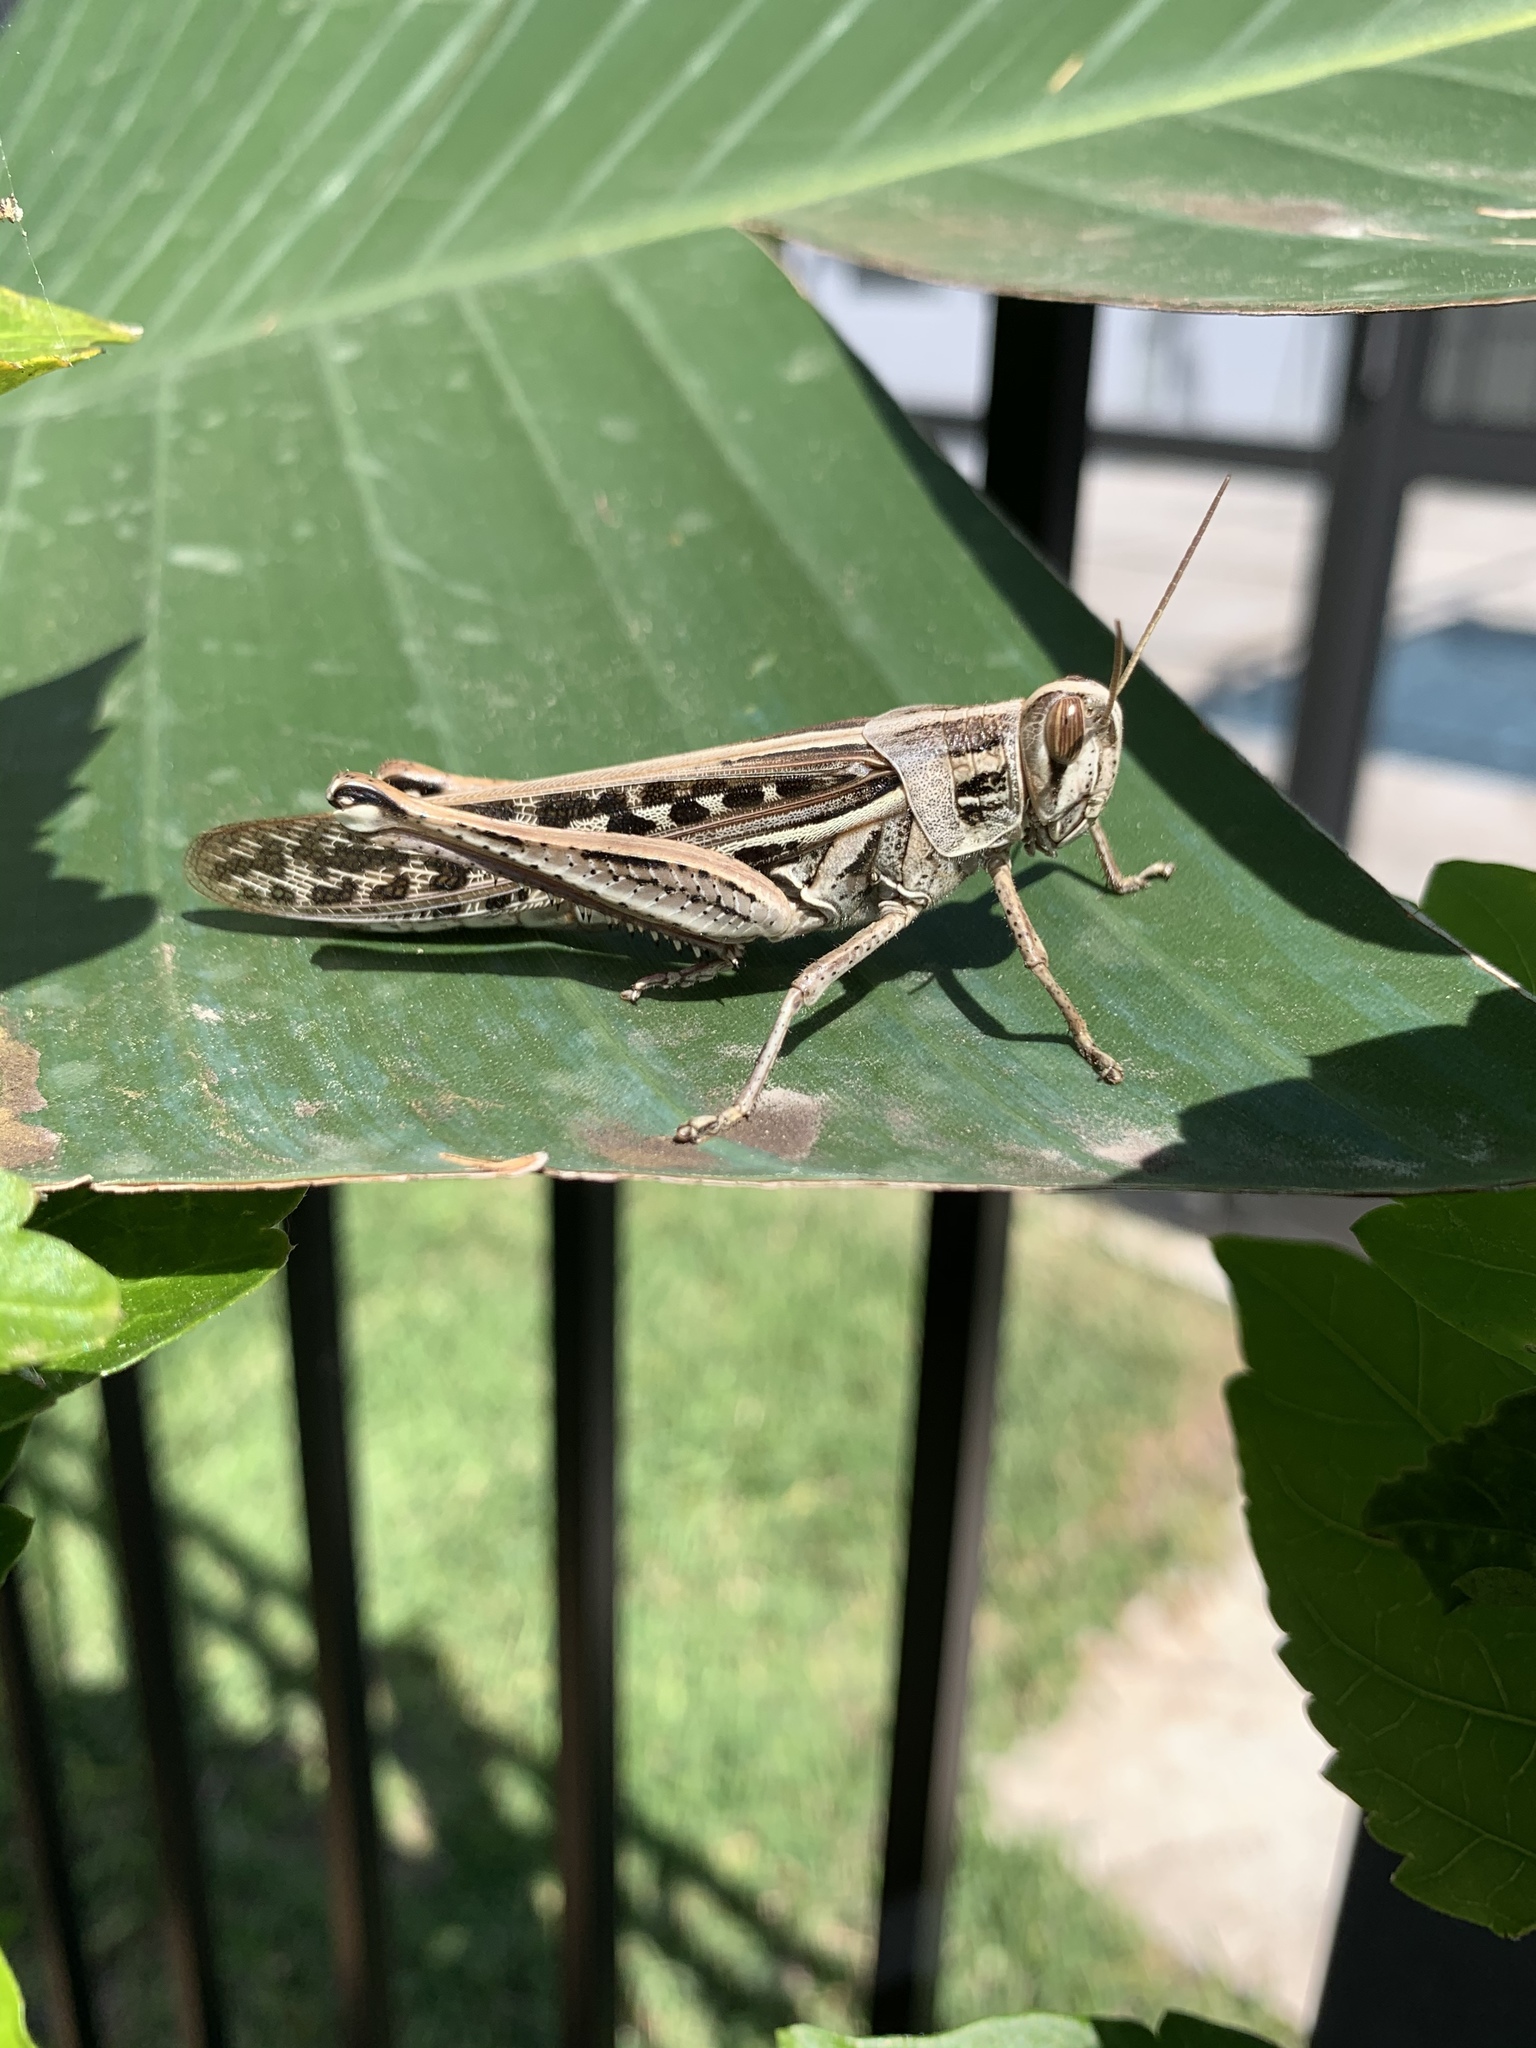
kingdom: Animalia
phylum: Arthropoda
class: Insecta
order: Orthoptera
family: Acrididae
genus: Schistocerca
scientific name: Schistocerca americana
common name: American bird locust
